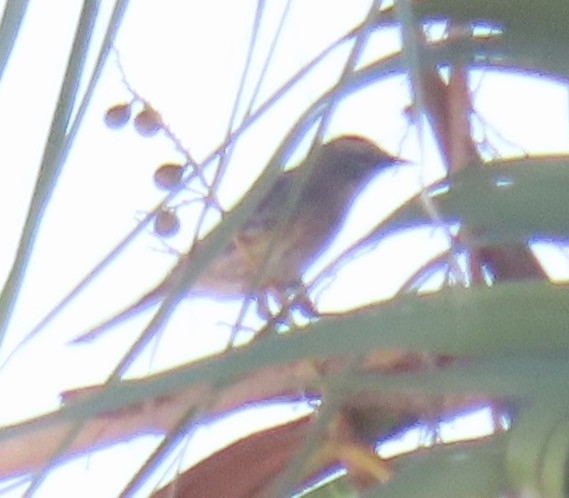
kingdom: Animalia
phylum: Chordata
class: Aves
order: Passeriformes
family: Parulidae
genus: Setophaga
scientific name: Setophaga coronata
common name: Myrtle warbler
